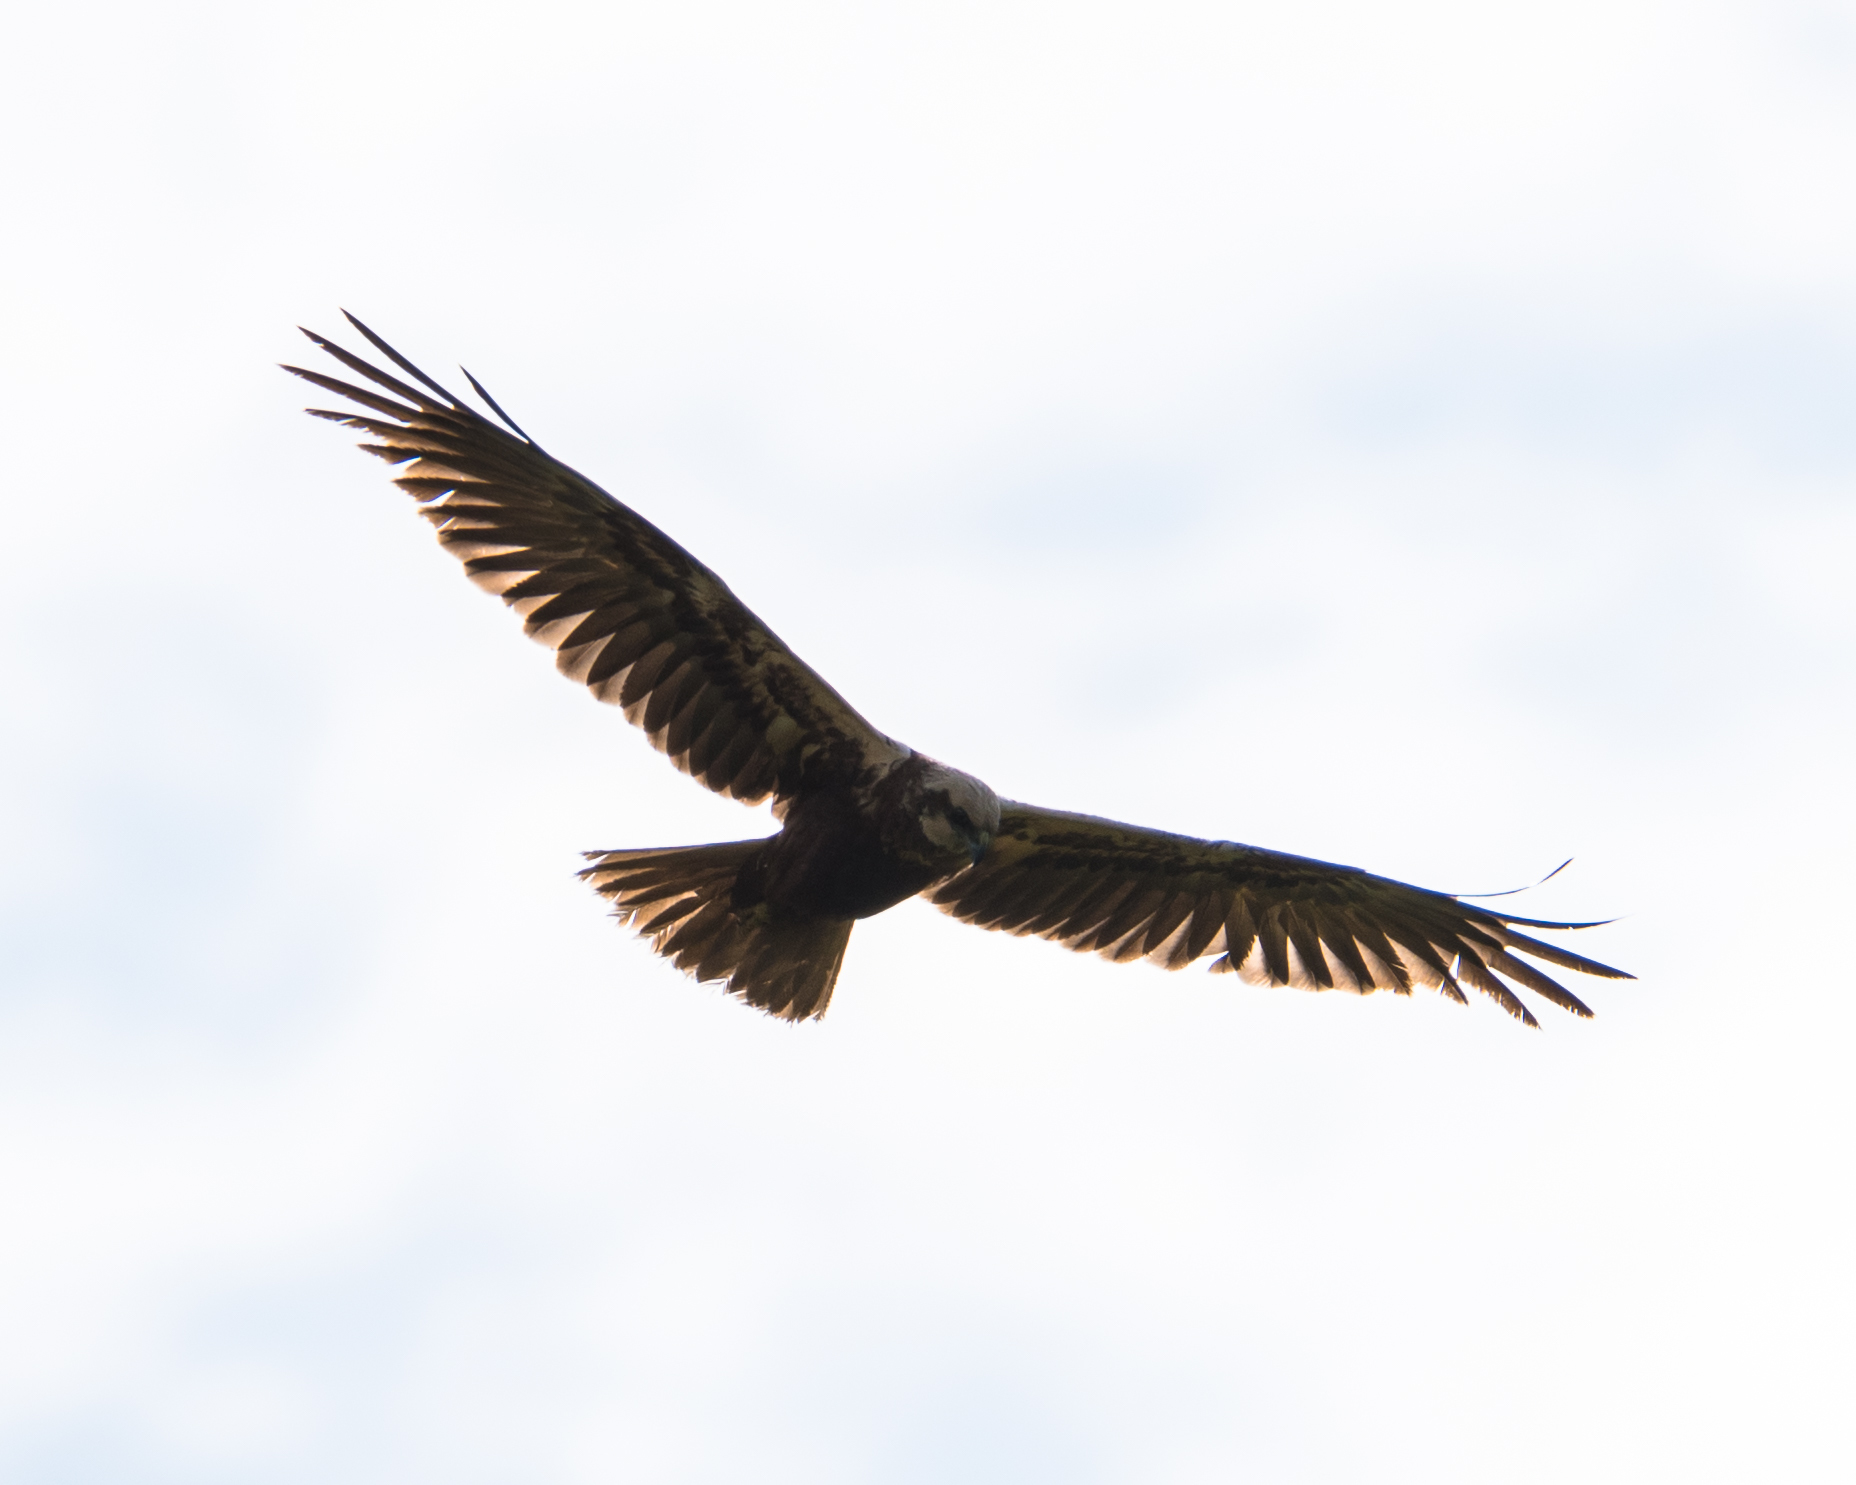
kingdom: Animalia
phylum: Chordata
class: Aves
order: Accipitriformes
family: Accipitridae
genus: Circus
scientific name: Circus aeruginosus
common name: Western marsh harrier
